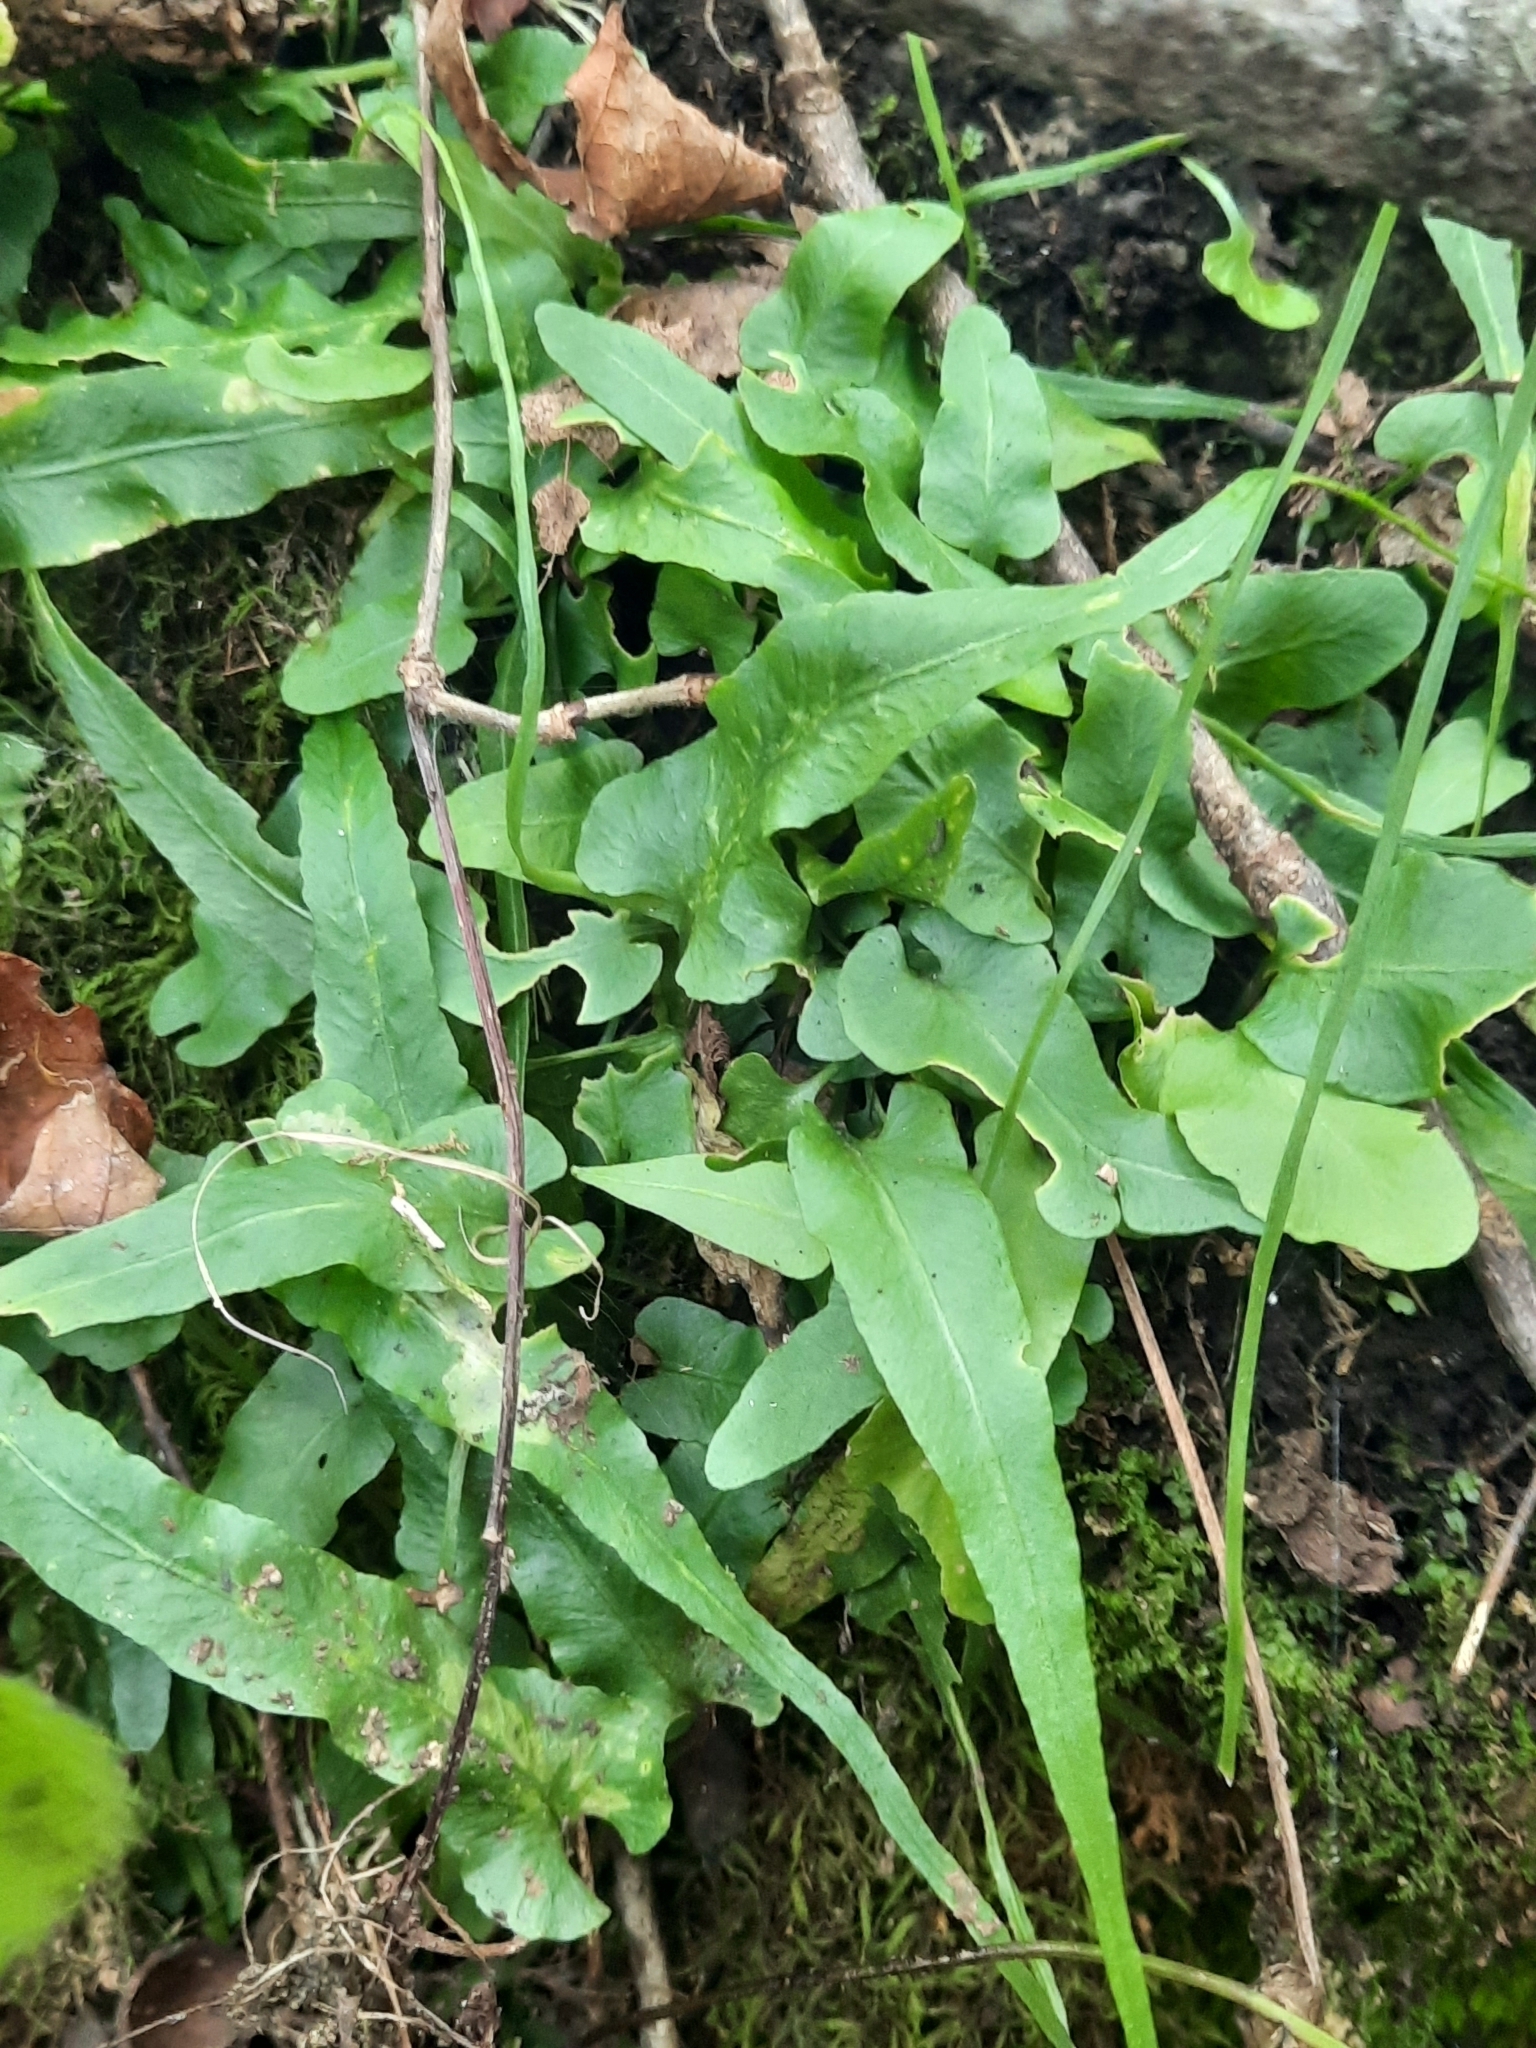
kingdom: Plantae
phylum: Tracheophyta
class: Polypodiopsida
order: Polypodiales
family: Aspleniaceae
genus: Asplenium
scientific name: Asplenium rhizophyllum
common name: Walking fern
